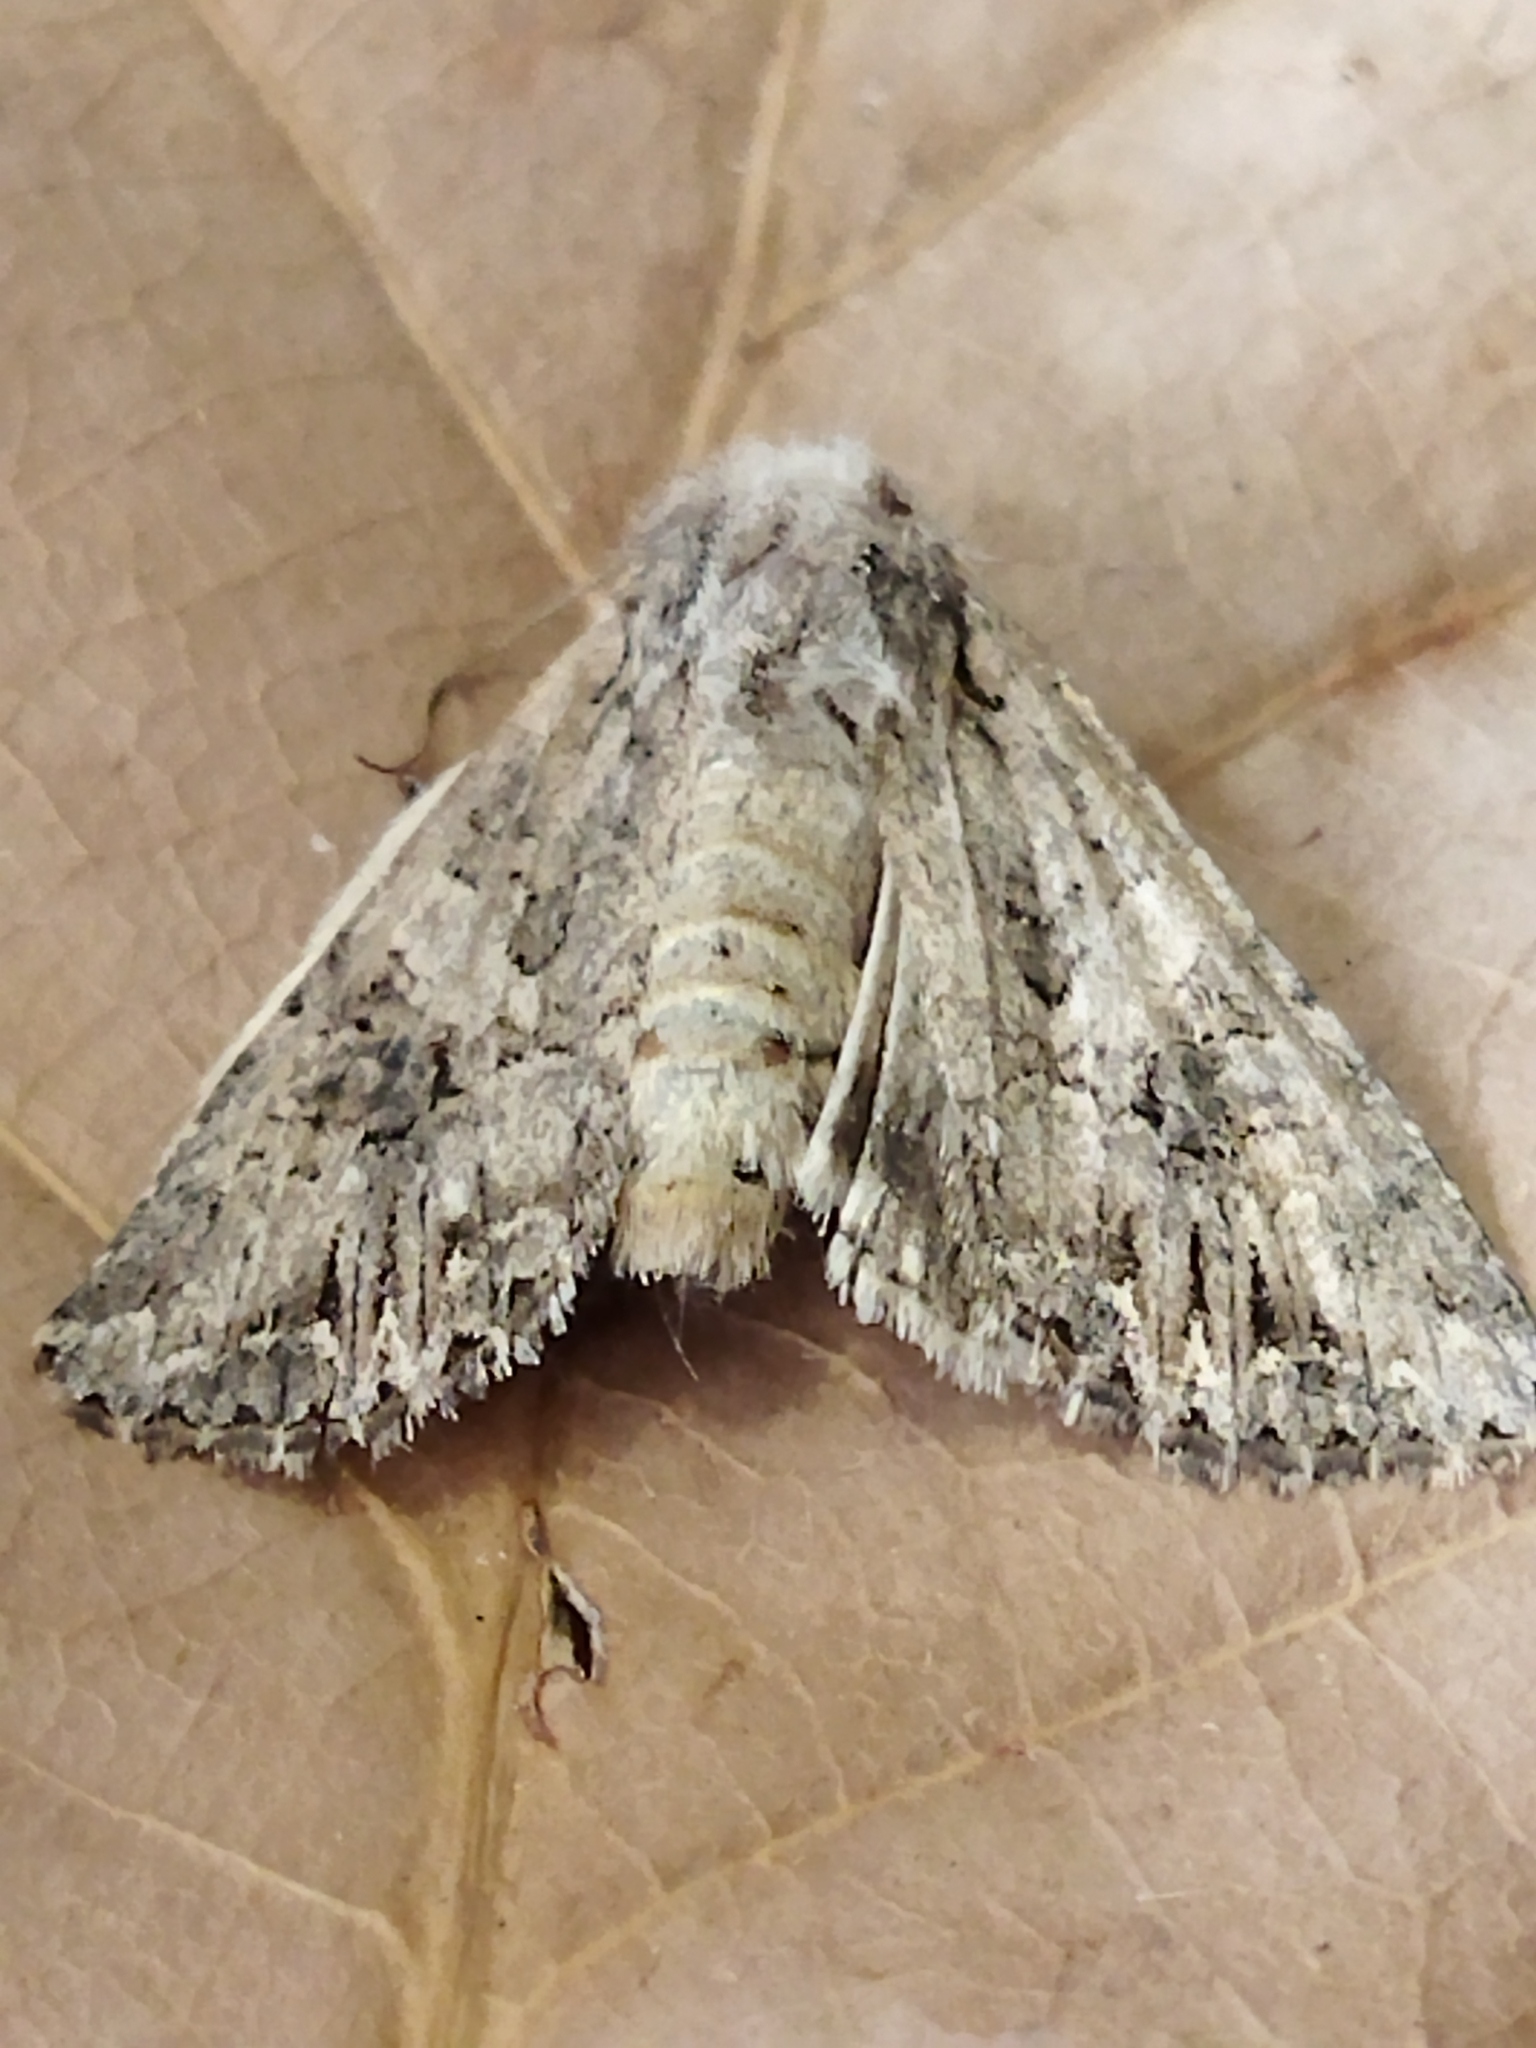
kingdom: Animalia
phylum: Arthropoda
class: Insecta
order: Lepidoptera
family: Noctuidae
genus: Anarta
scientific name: Anarta trifolii
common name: Clover cutworm moth
